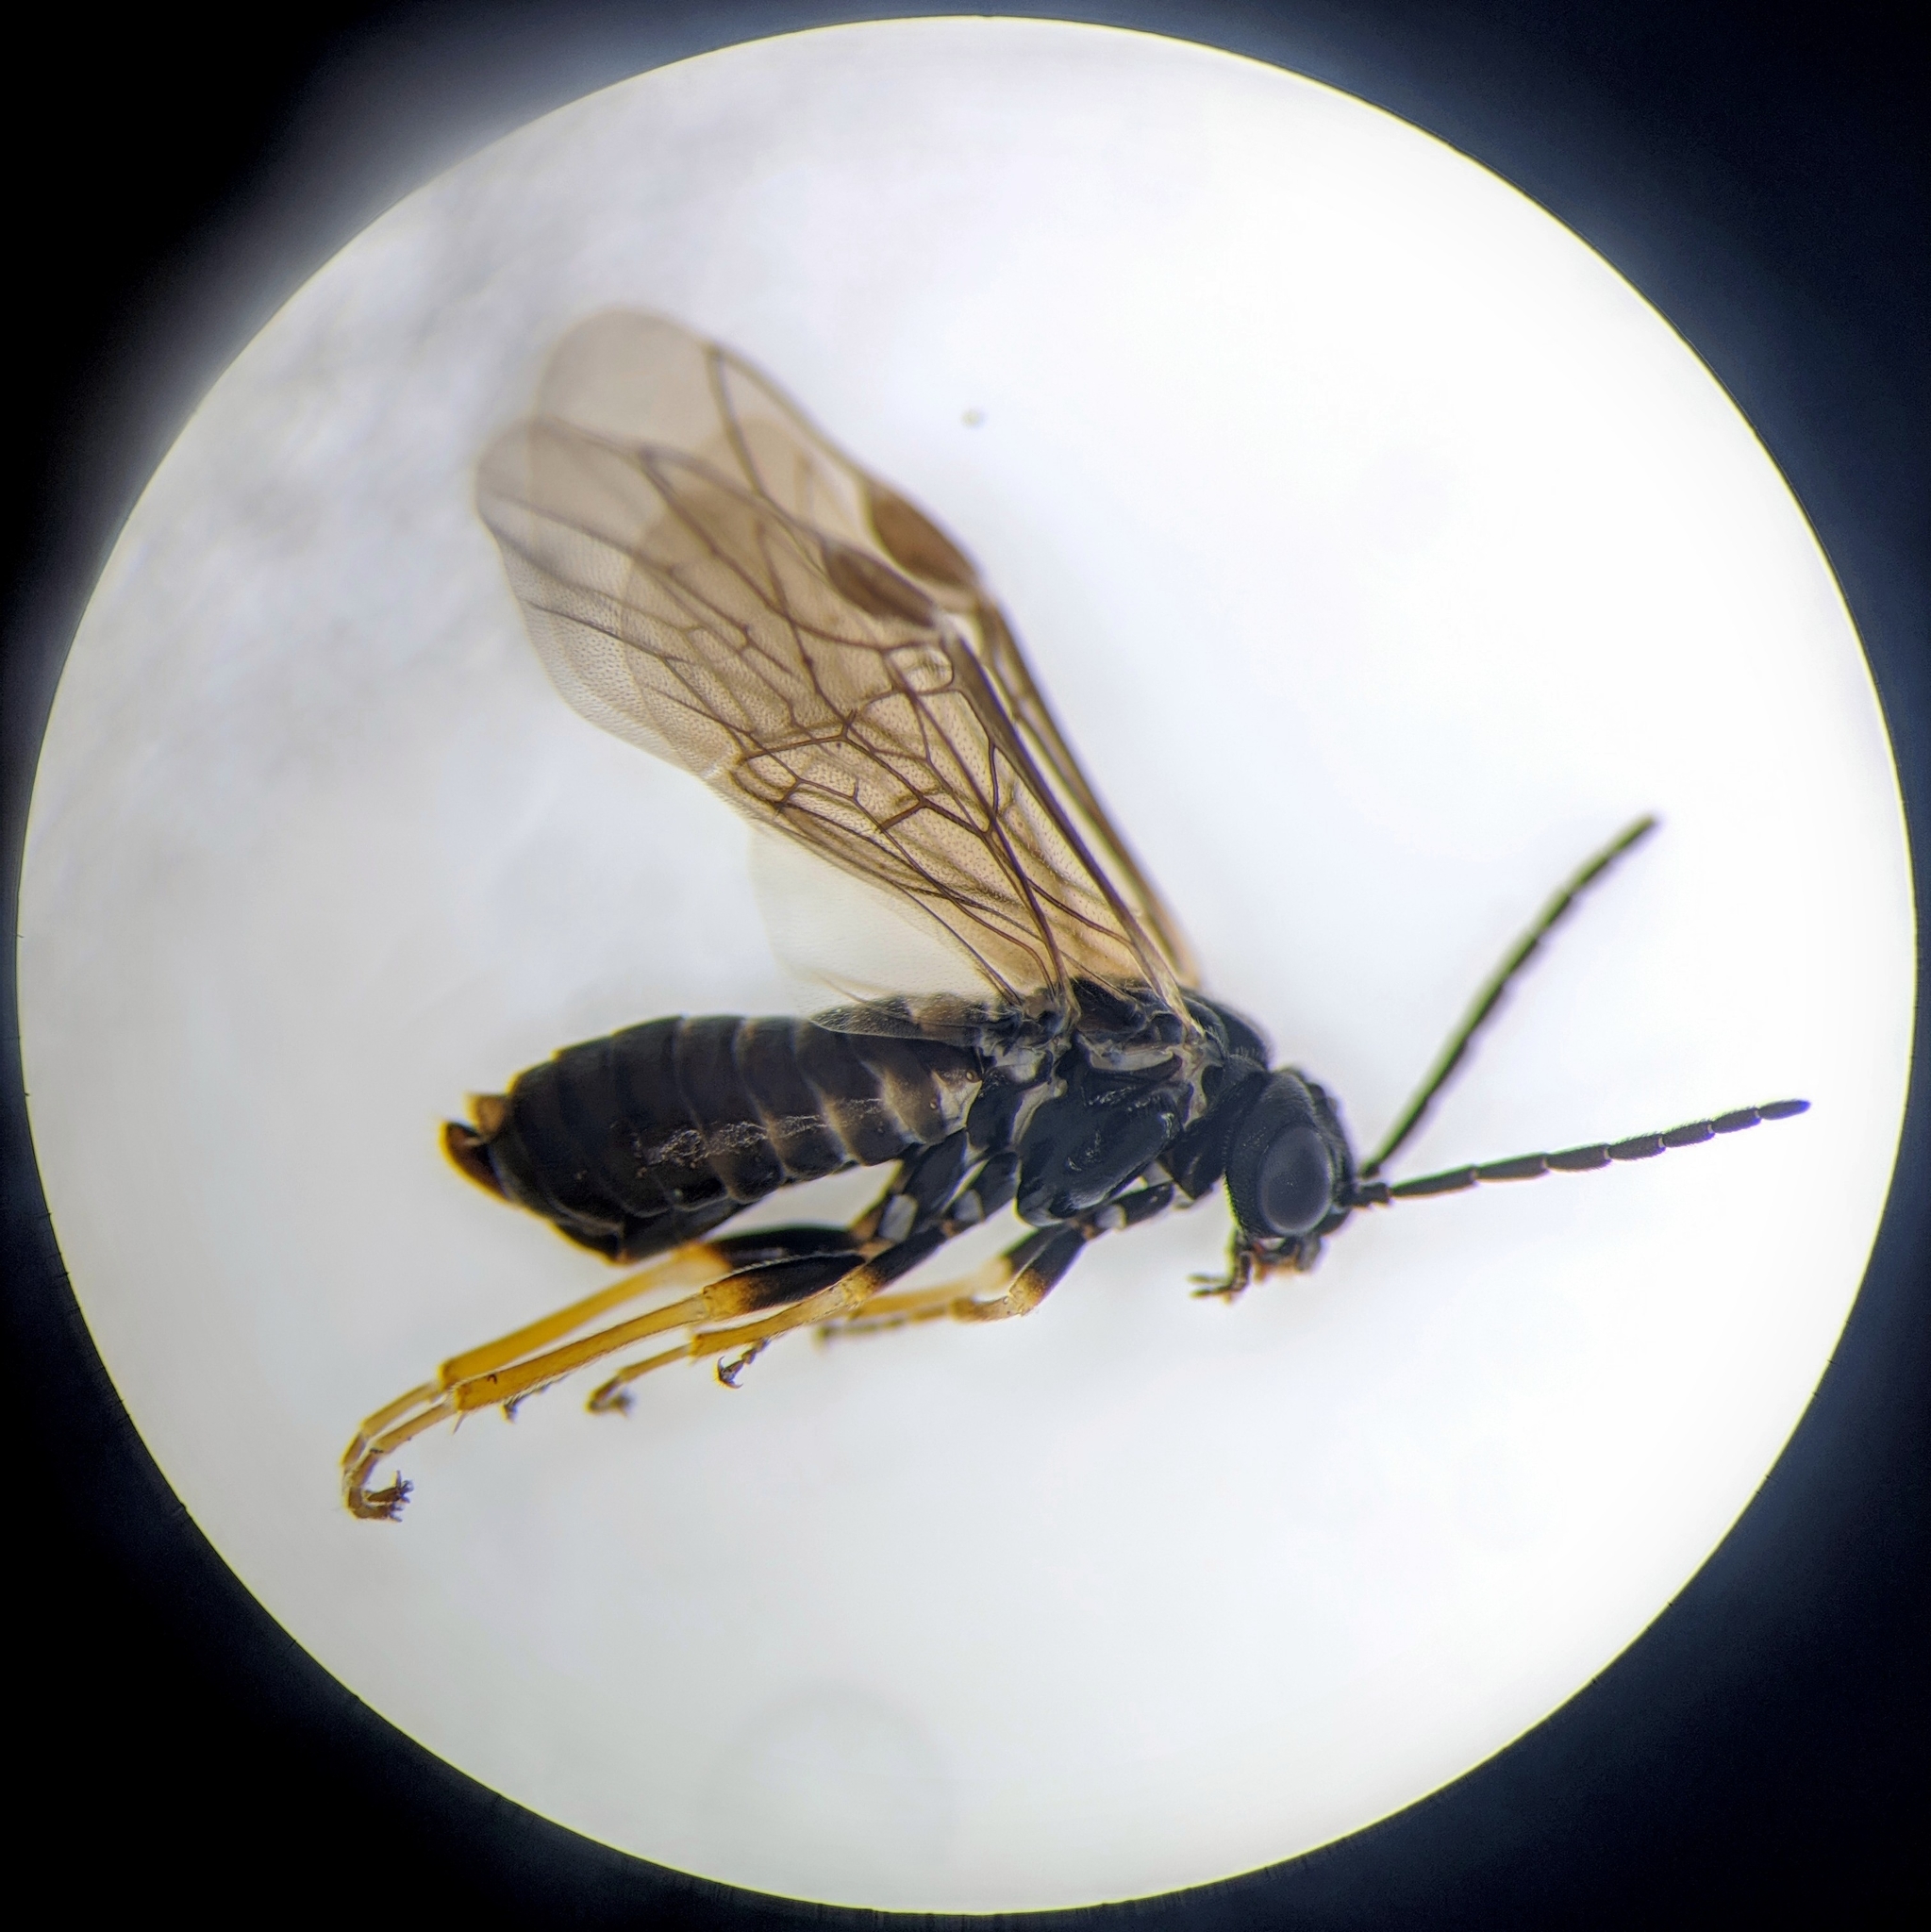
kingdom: Animalia
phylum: Arthropoda
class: Insecta
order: Hymenoptera
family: Tenthredinidae
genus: Pseudodineura
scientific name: Pseudodineura fuscula
